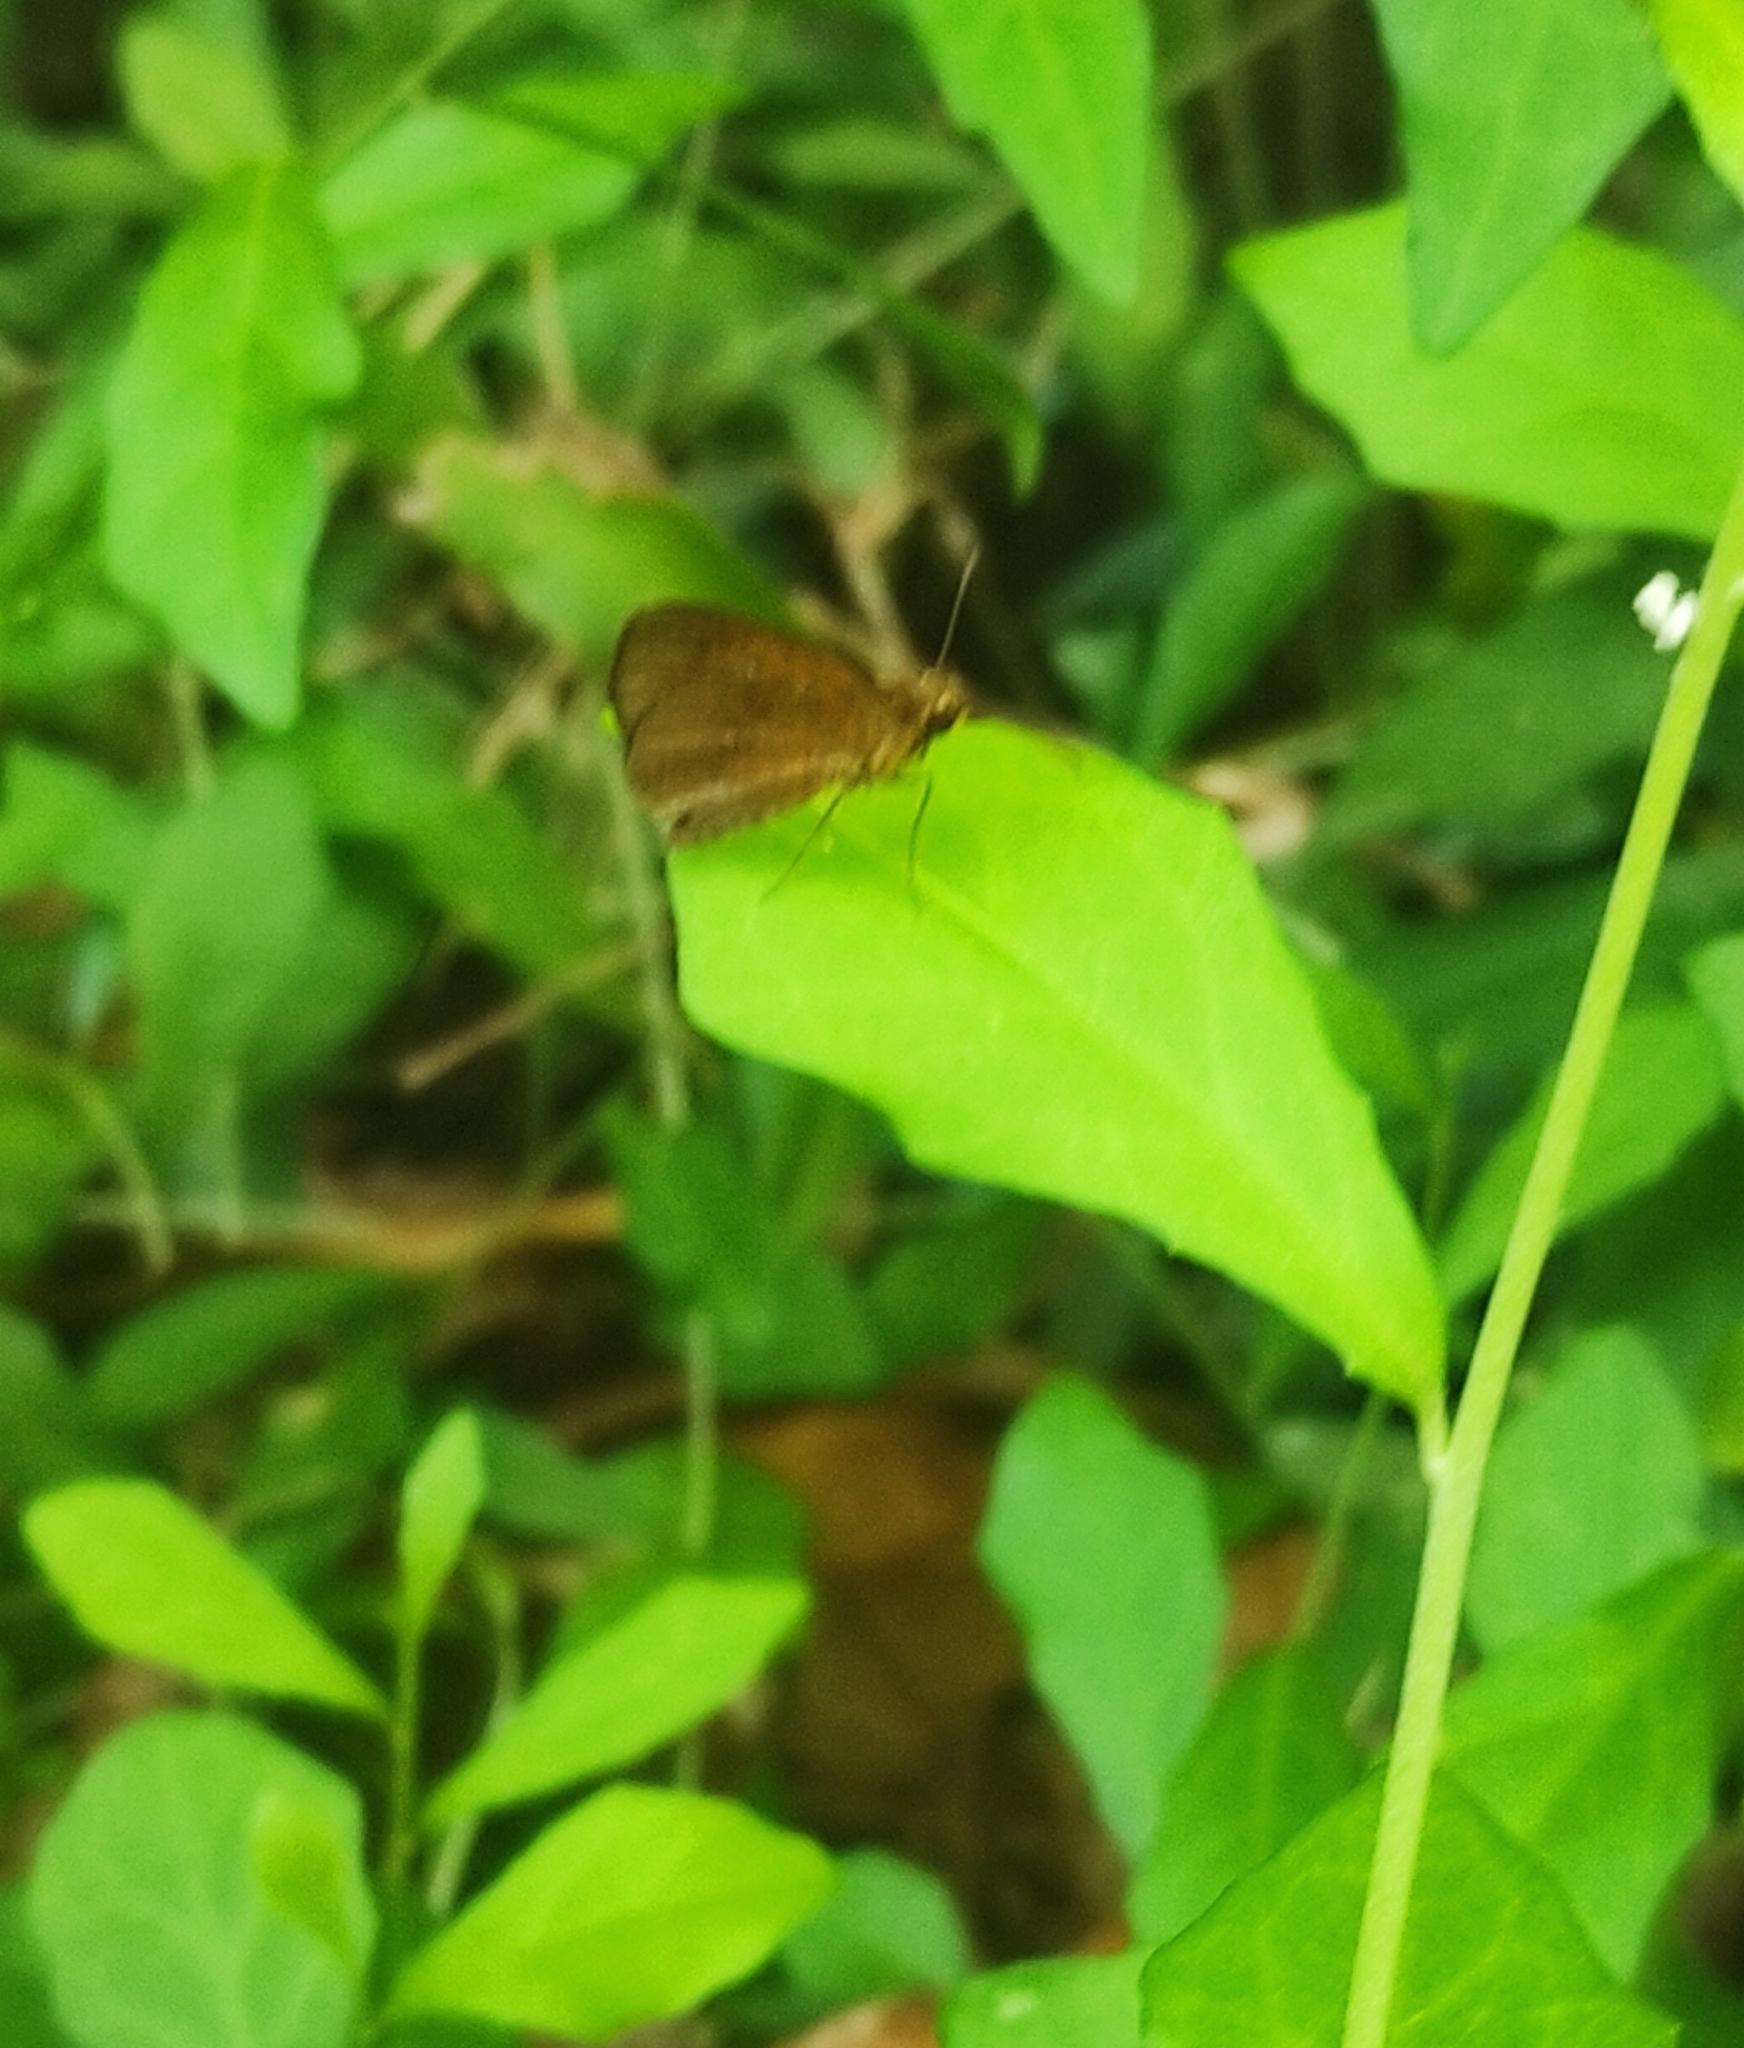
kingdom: Animalia
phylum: Arthropoda
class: Insecta
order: Lepidoptera
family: Hesperiidae
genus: Iambrix
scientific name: Iambrix salsala
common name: Chestnut bob
